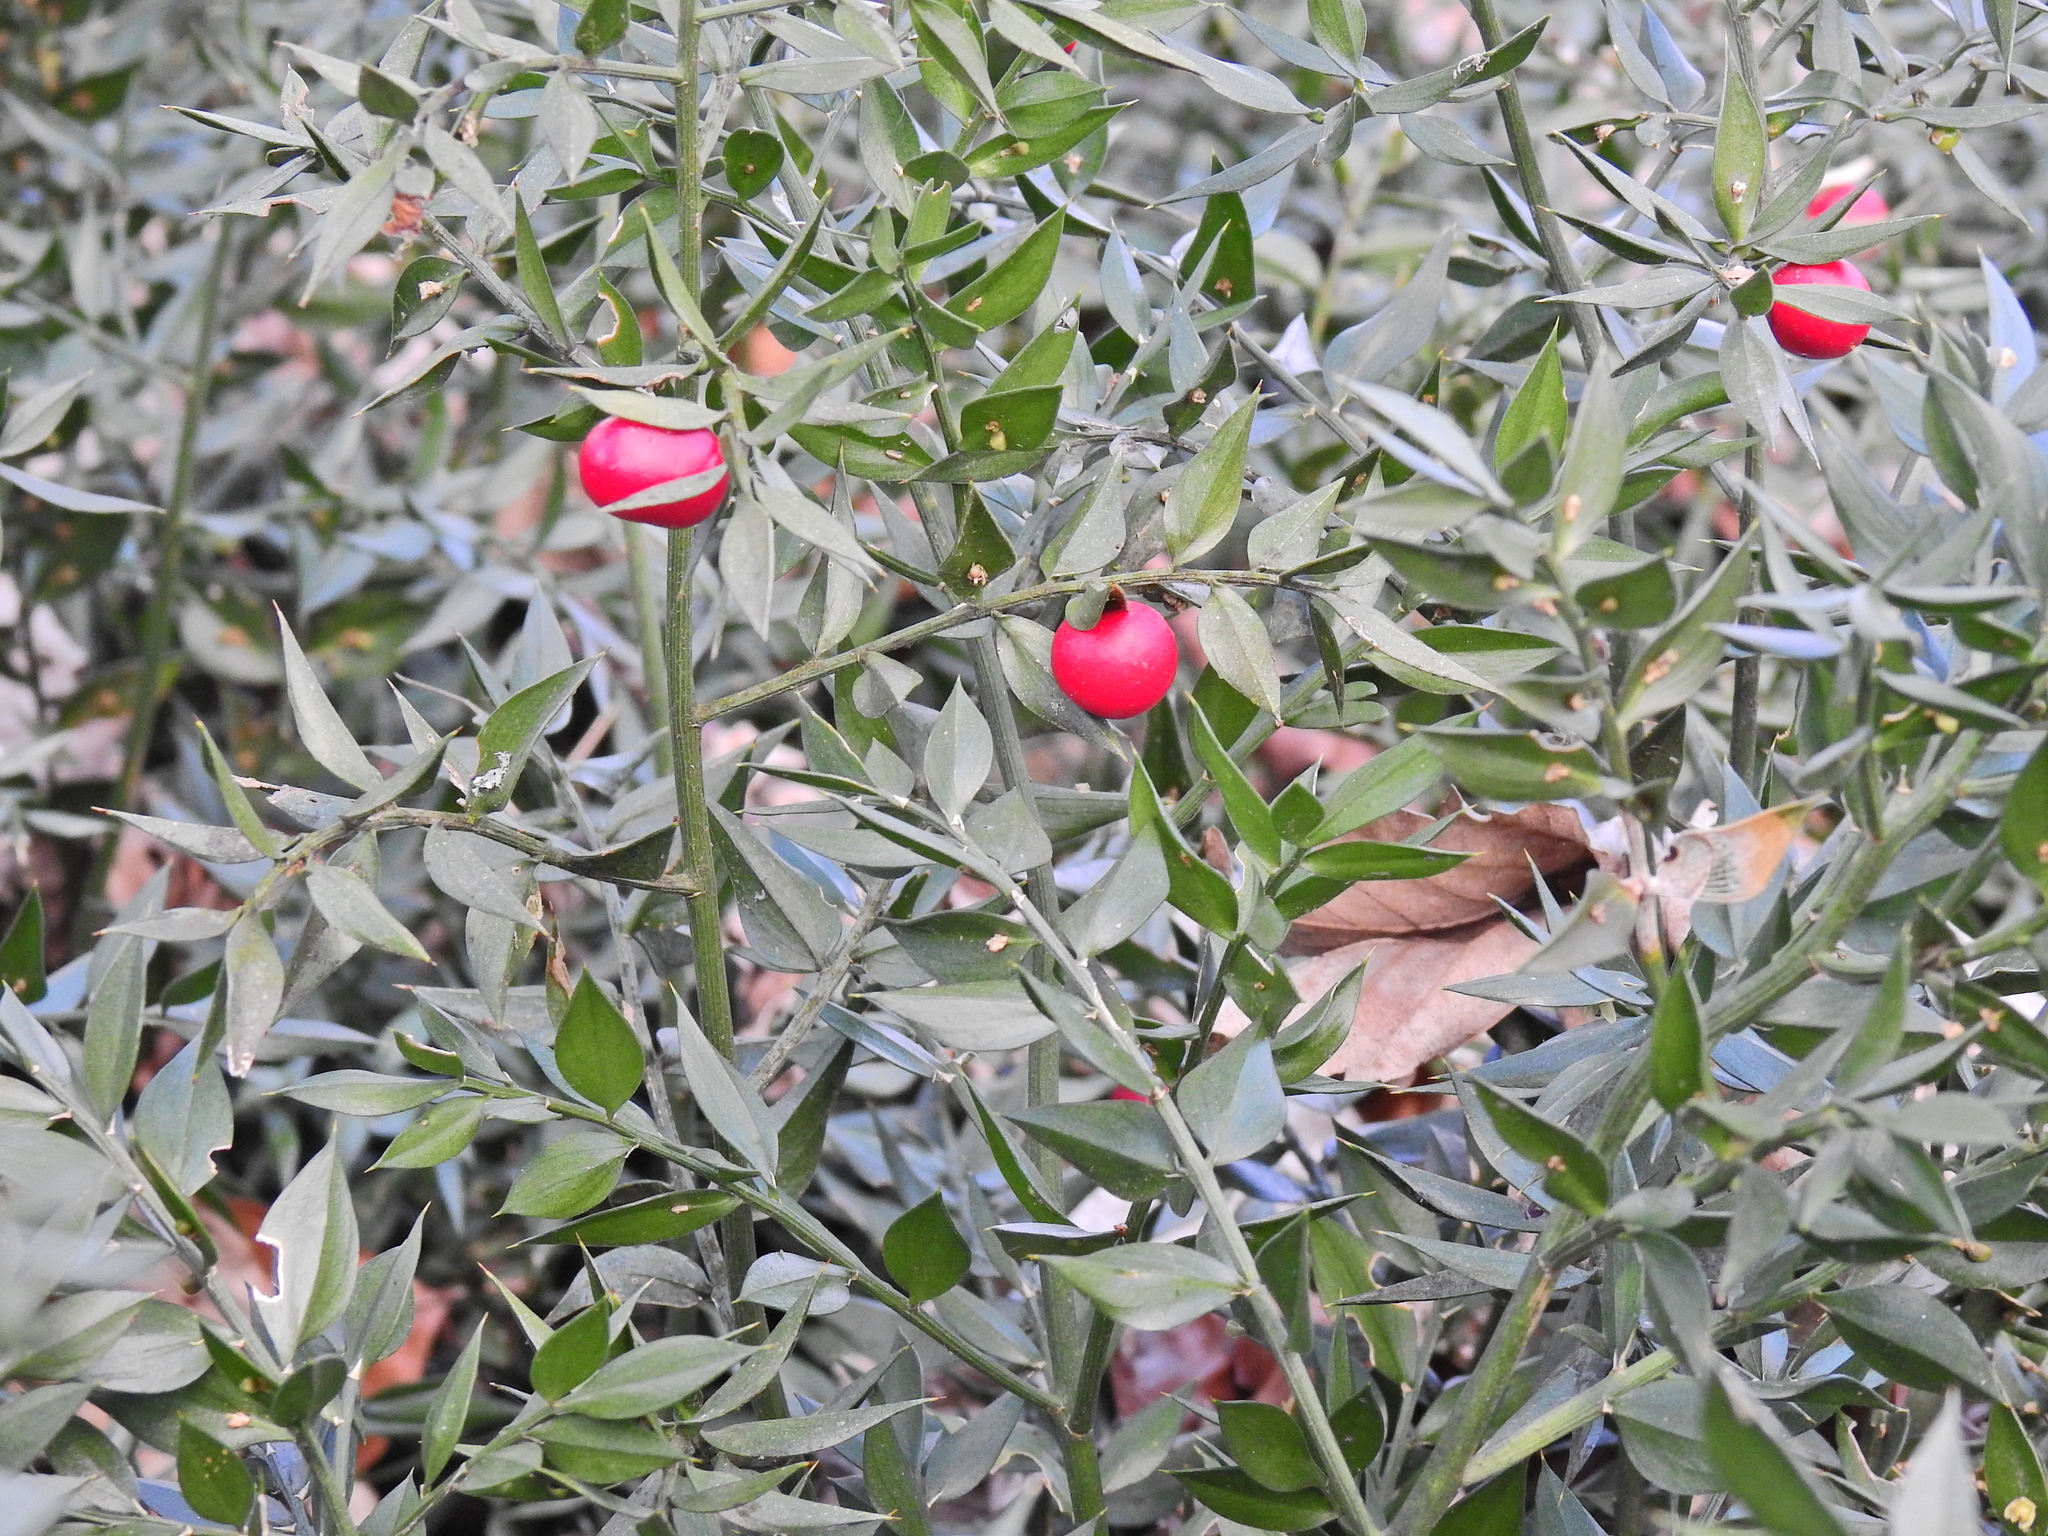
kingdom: Plantae
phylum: Tracheophyta
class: Liliopsida
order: Asparagales
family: Asparagaceae
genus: Ruscus
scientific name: Ruscus aculeatus
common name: Butcher's-broom
